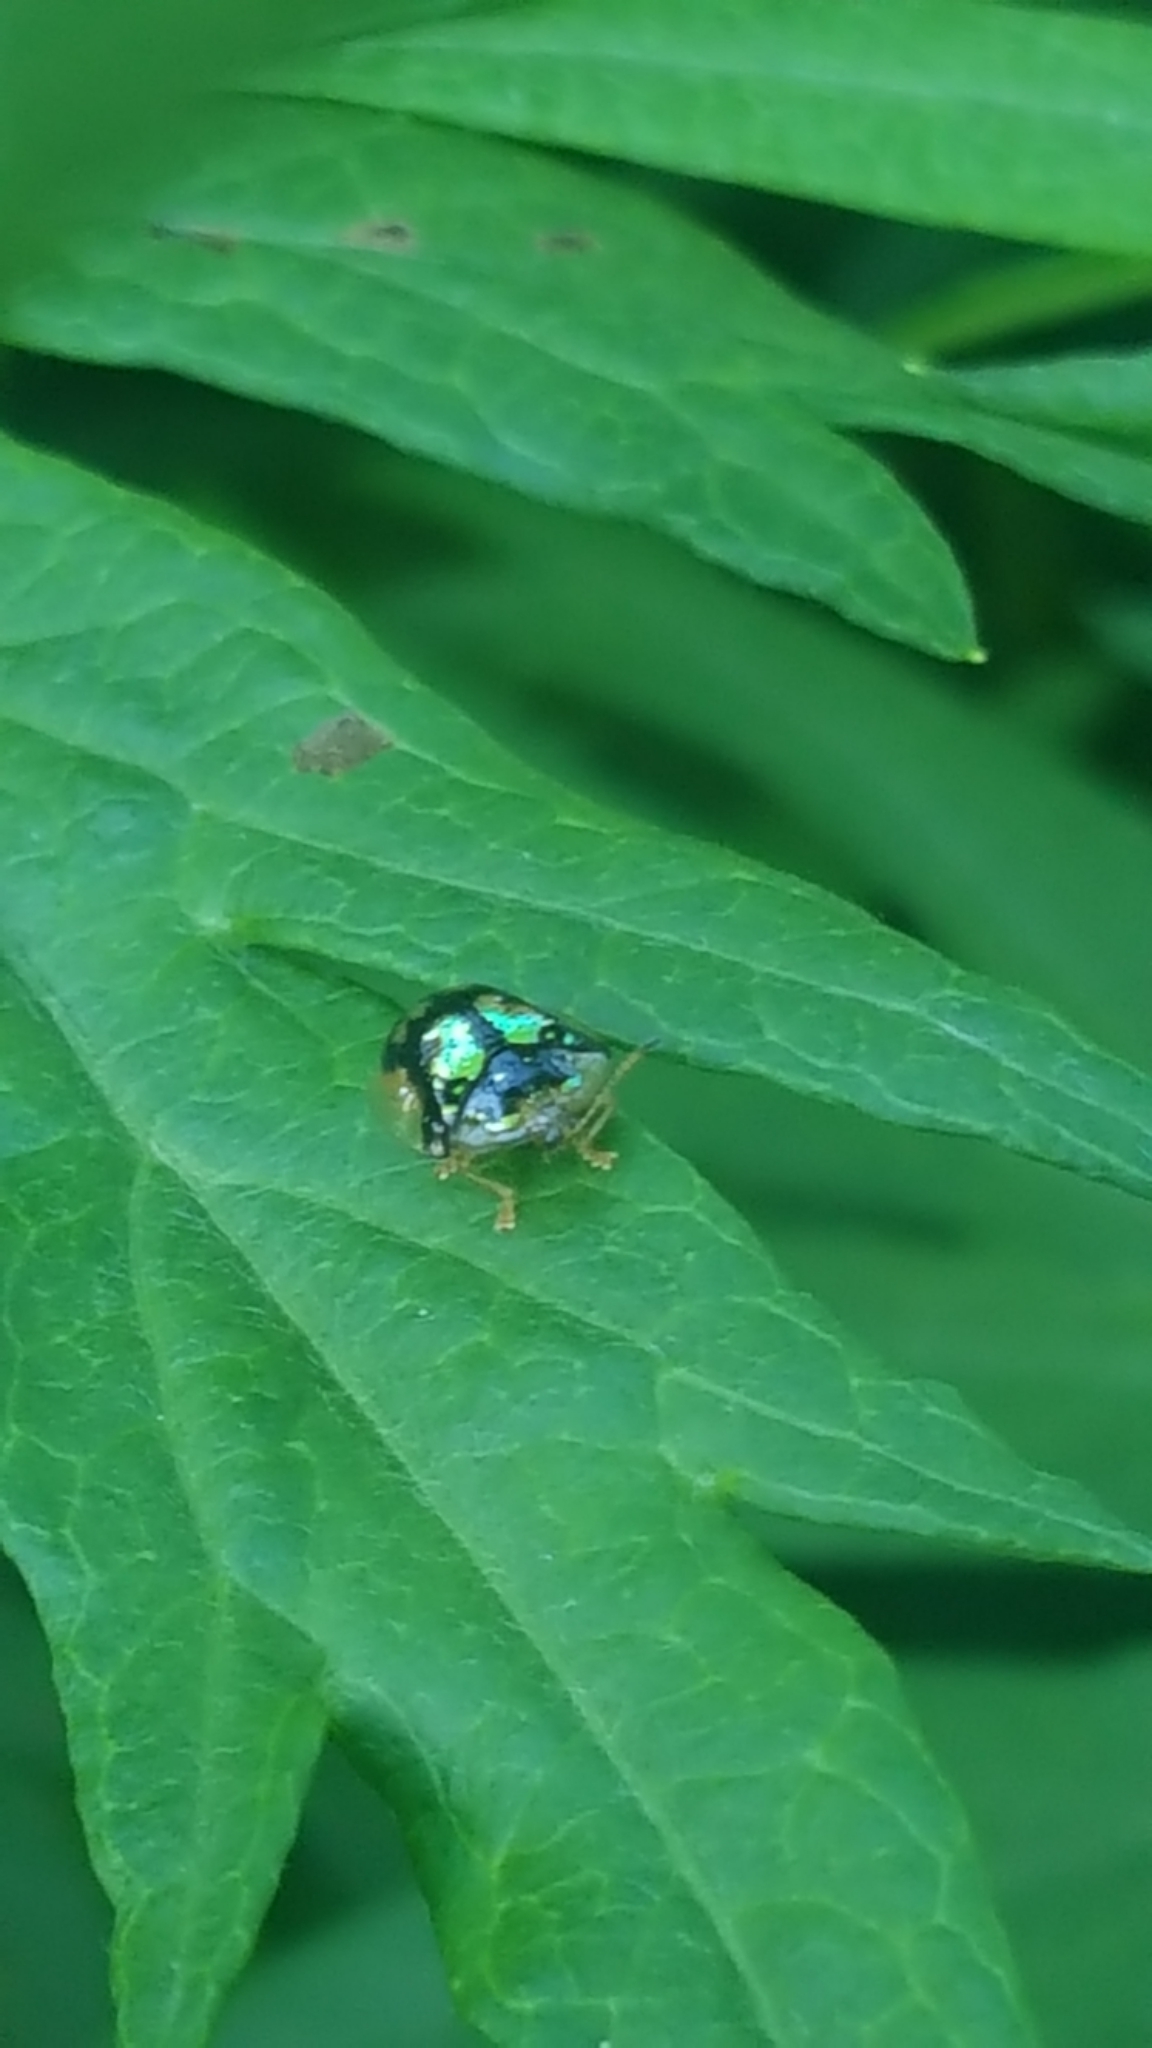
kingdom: Animalia
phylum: Arthropoda
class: Insecta
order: Coleoptera
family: Chrysomelidae
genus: Deloyala
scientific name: Deloyala guttata
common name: Mottled tortoise beetle
